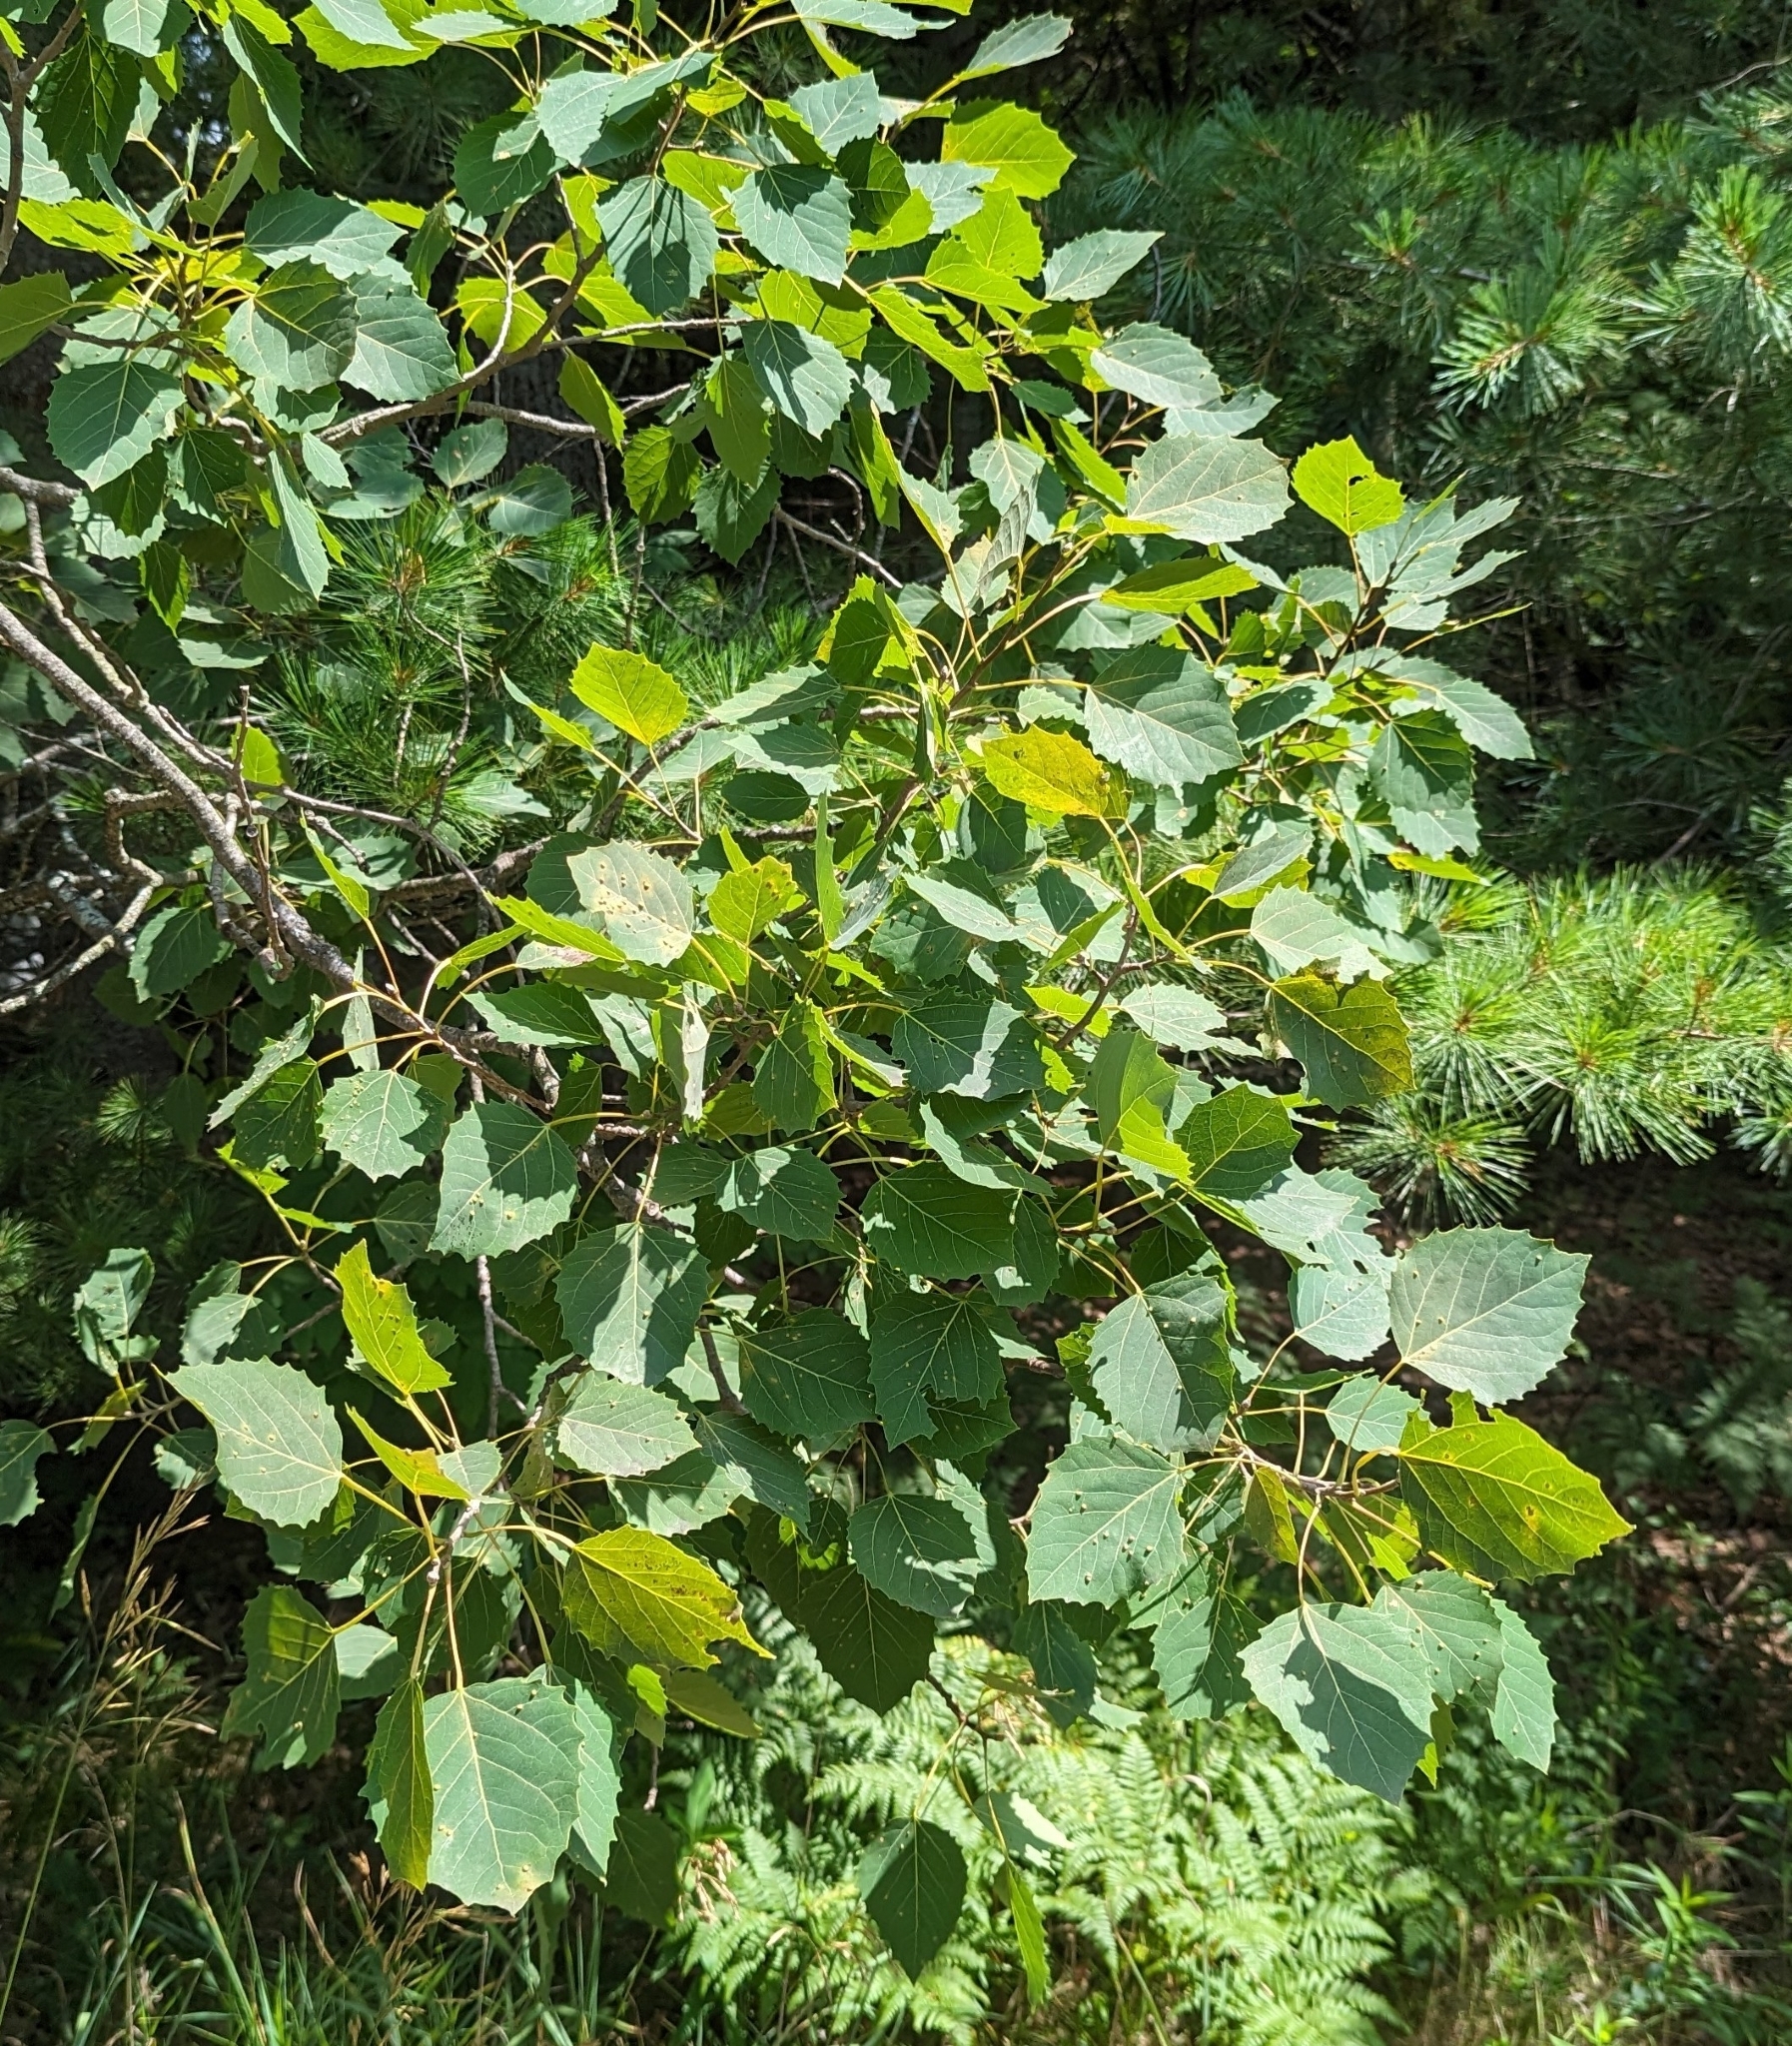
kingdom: Plantae
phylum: Tracheophyta
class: Magnoliopsida
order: Malpighiales
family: Salicaceae
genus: Populus
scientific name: Populus grandidentata
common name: Bigtooth aspen
